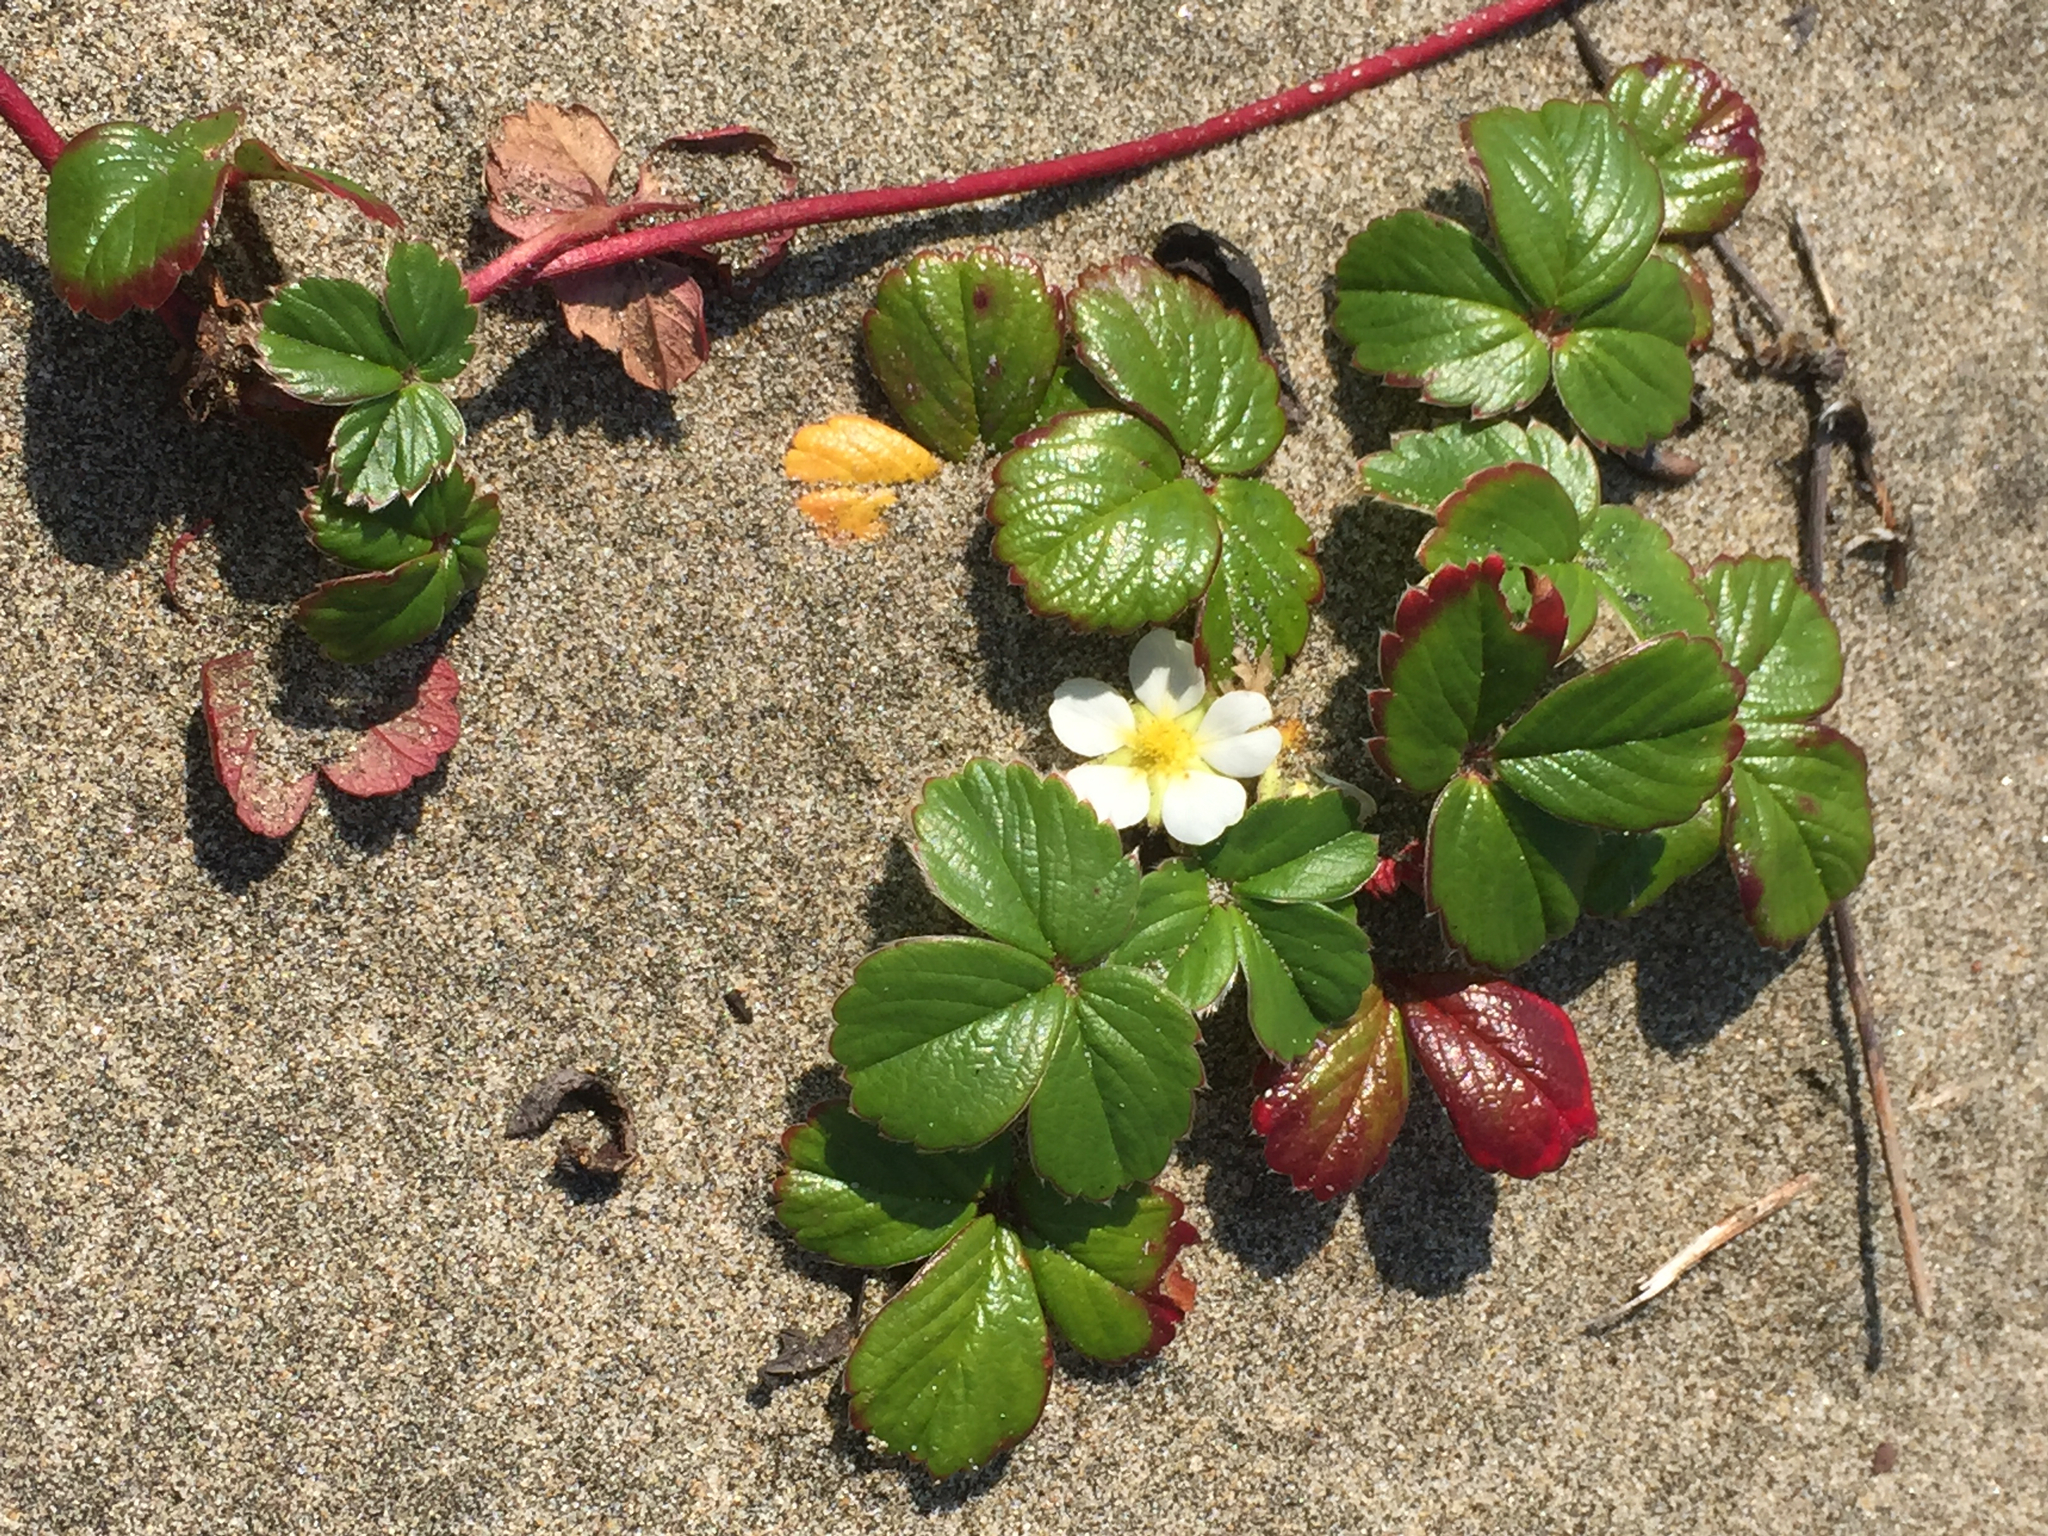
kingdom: Plantae
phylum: Tracheophyta
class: Magnoliopsida
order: Rosales
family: Rosaceae
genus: Fragaria
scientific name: Fragaria chiloensis
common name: Beach strawberry
